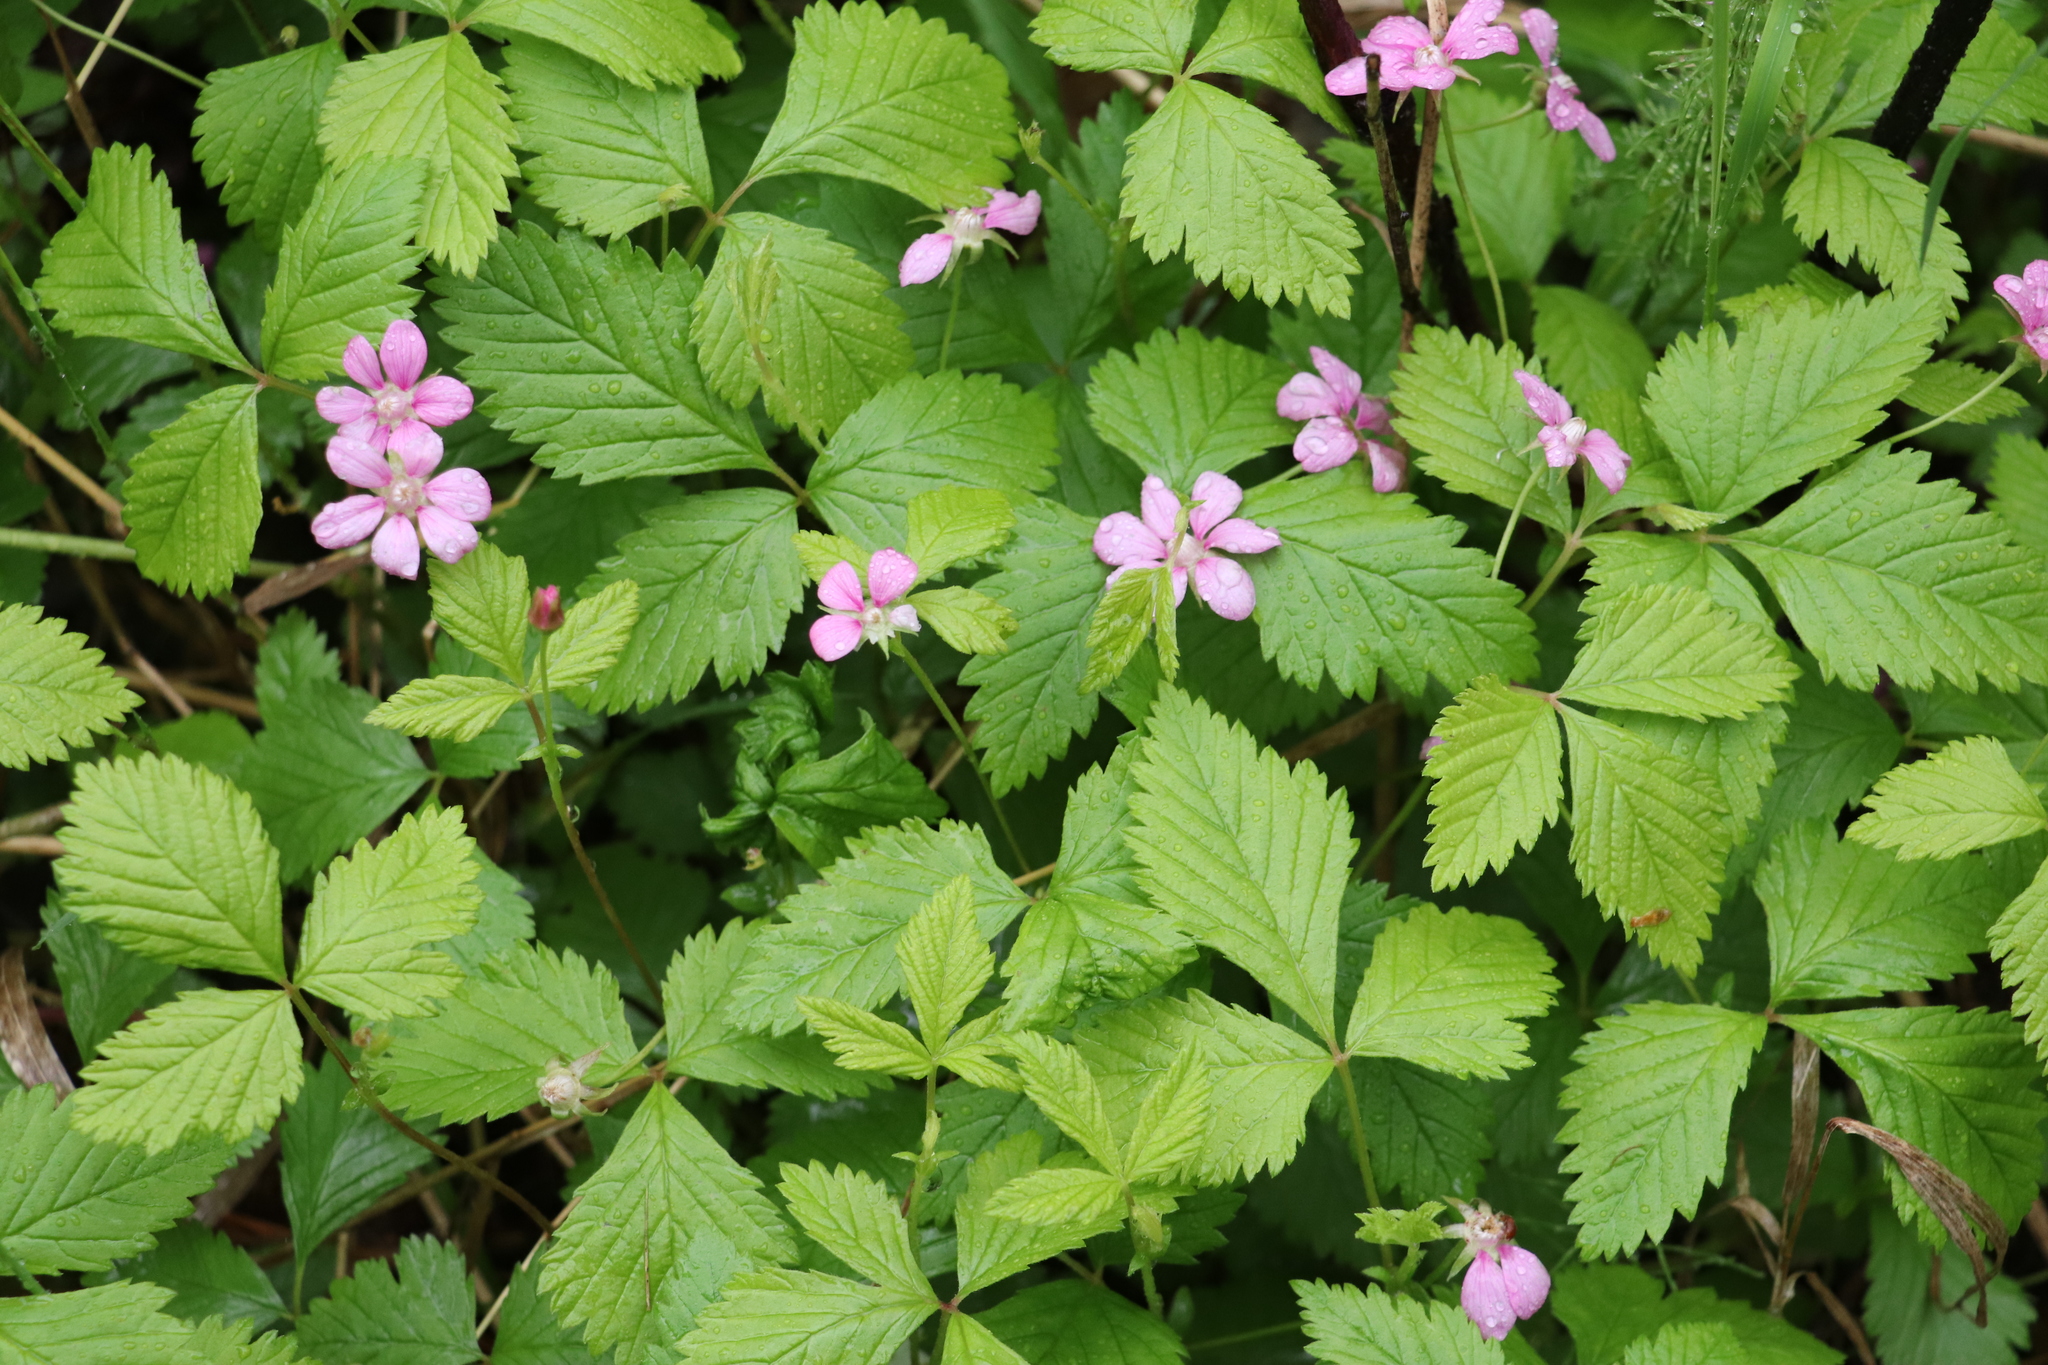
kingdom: Plantae
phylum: Tracheophyta
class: Magnoliopsida
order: Rosales
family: Rosaceae
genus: Rubus
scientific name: Rubus arcticus
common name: Arctic bramble
